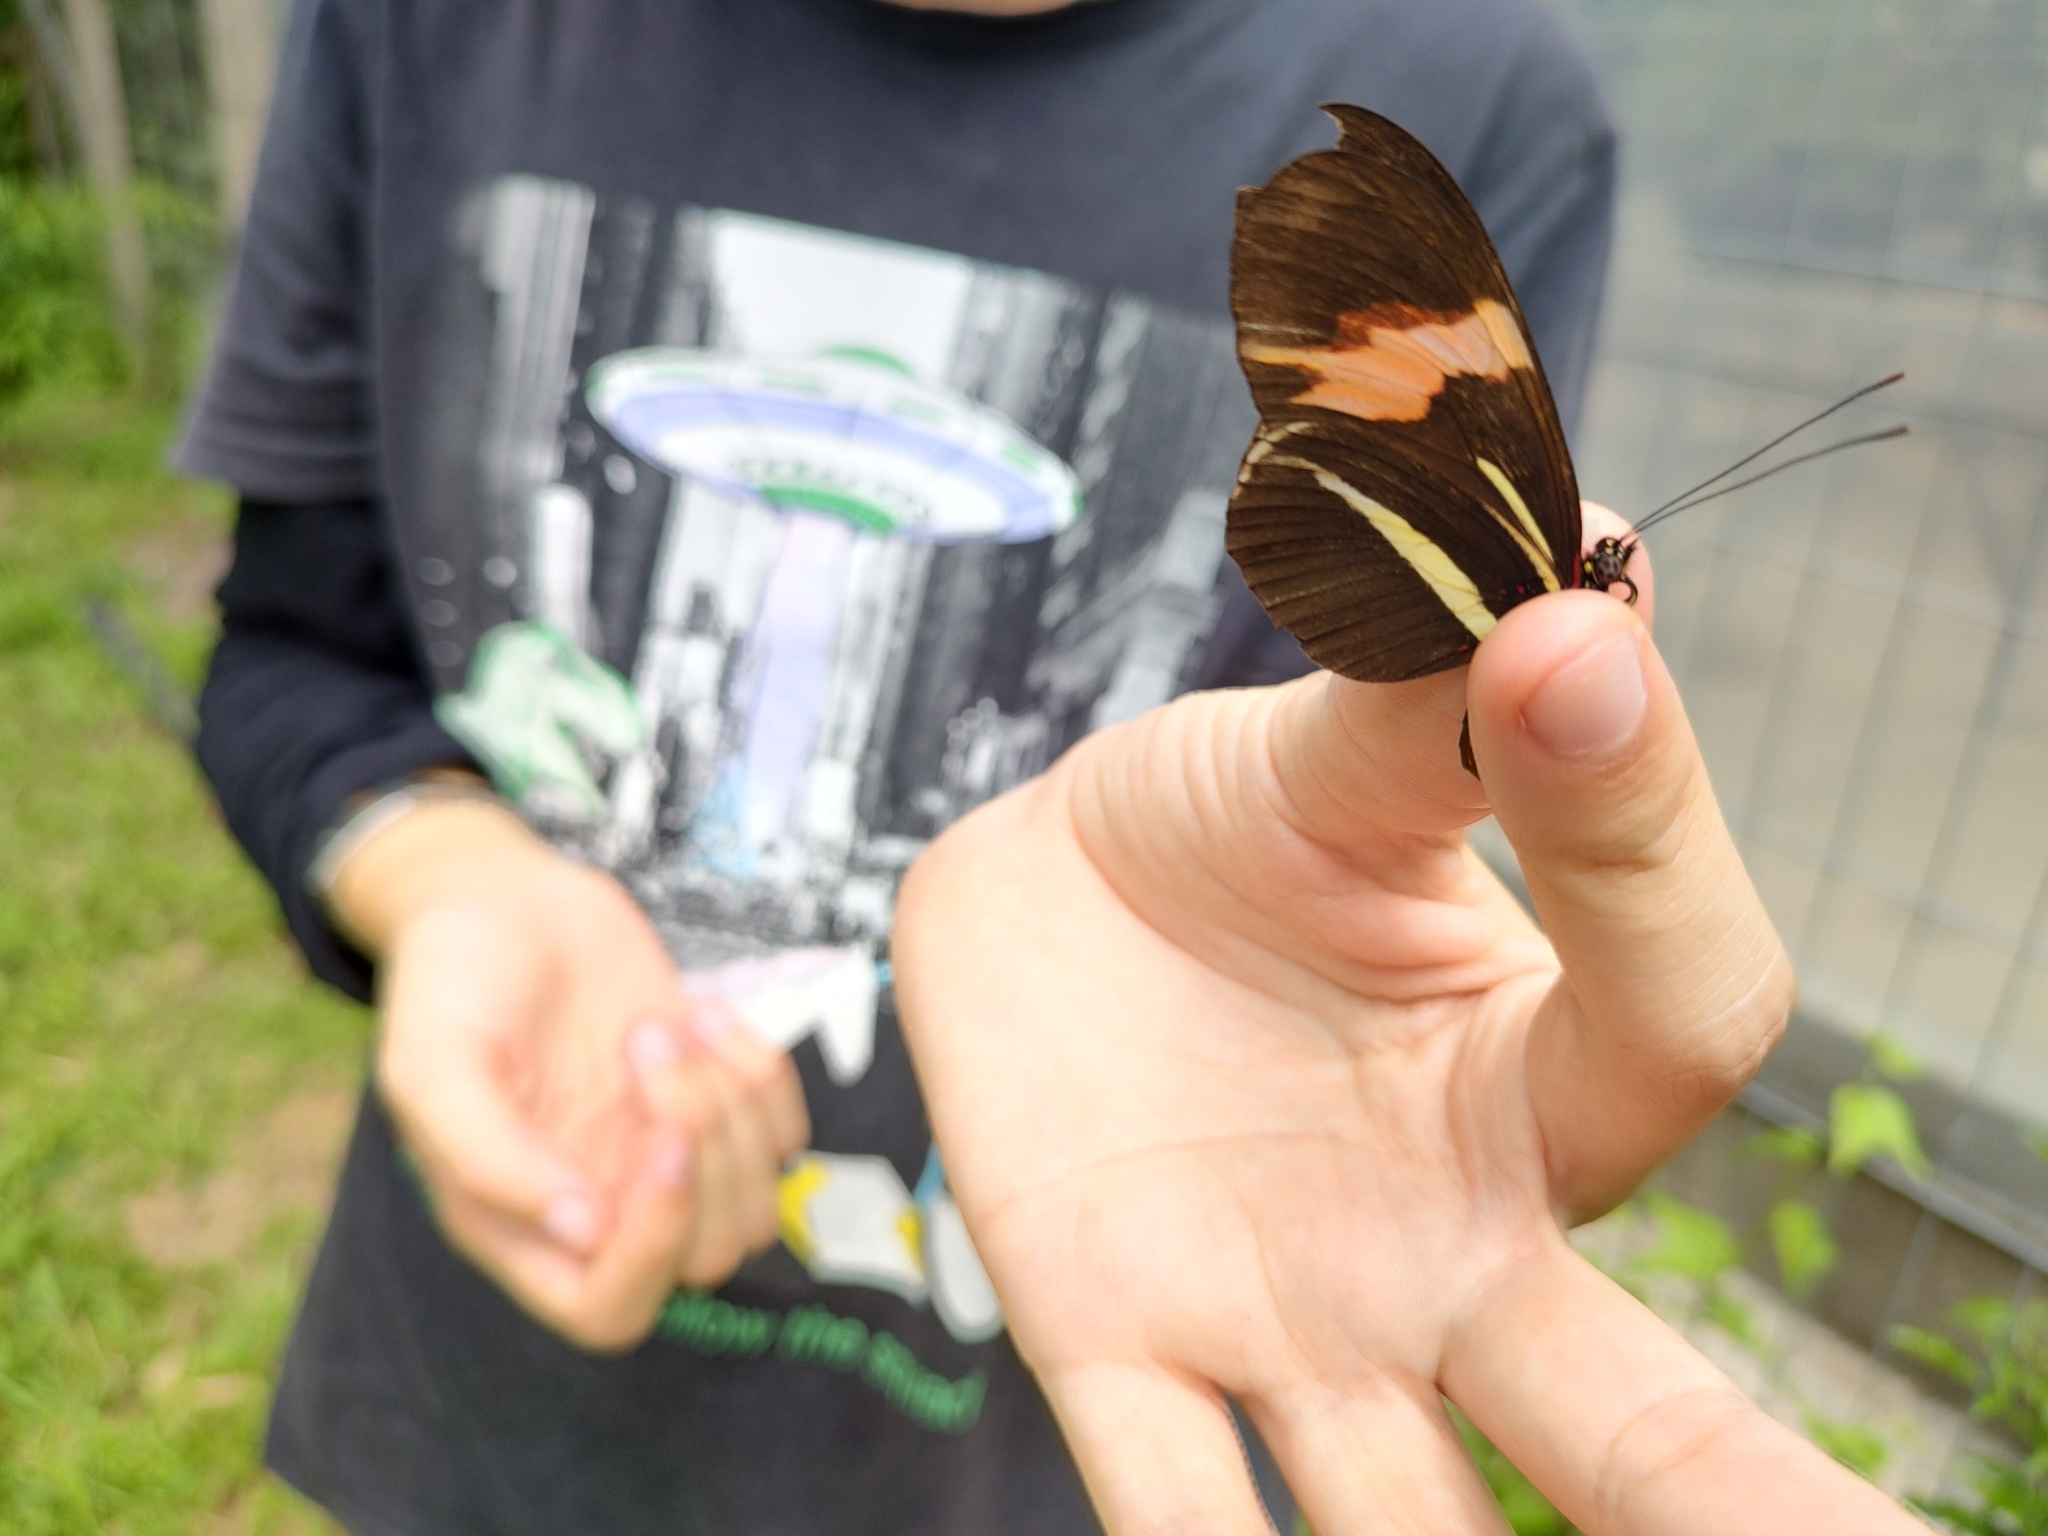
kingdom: Animalia
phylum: Arthropoda
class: Insecta
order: Lepidoptera
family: Nymphalidae
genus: Heliconius
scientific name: Heliconius erato
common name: Common patch longwing
